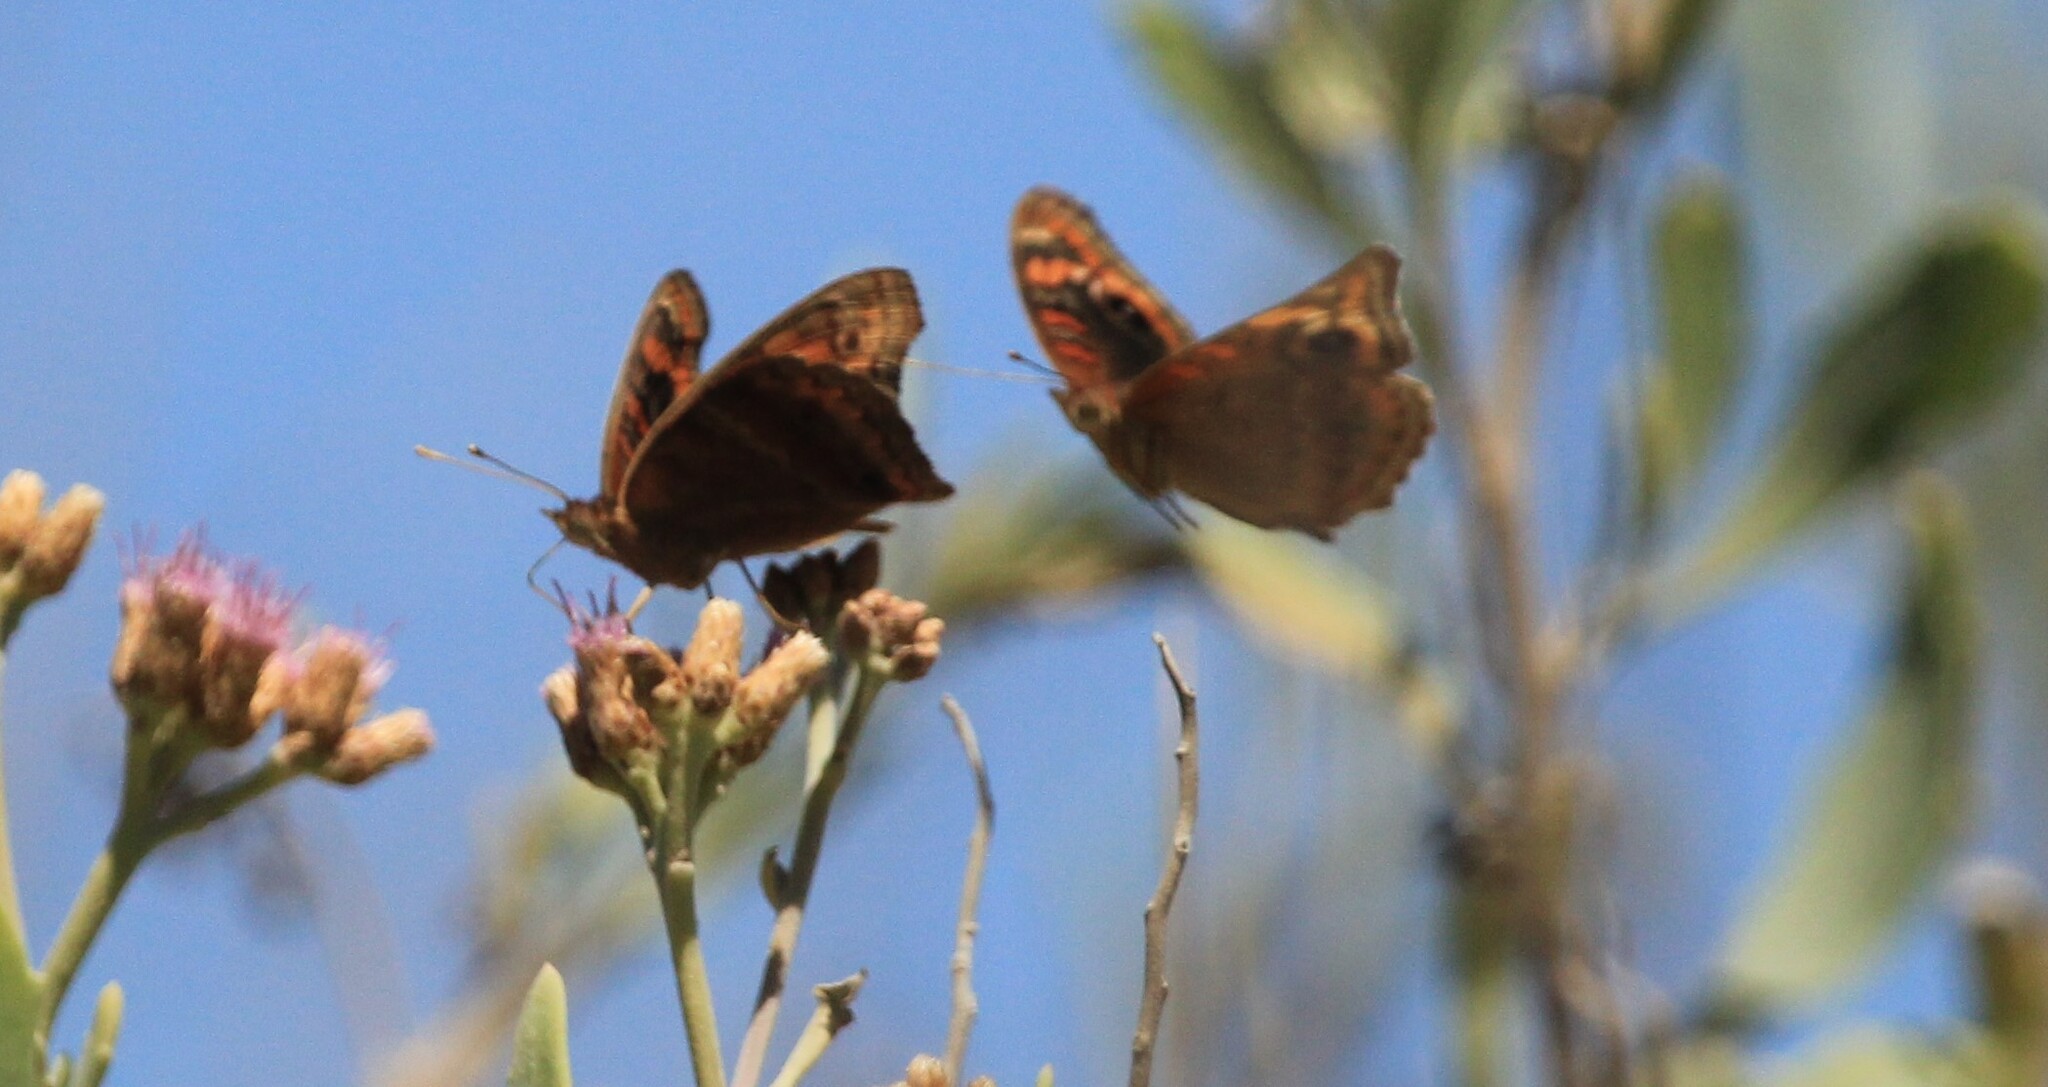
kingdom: Animalia
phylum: Arthropoda
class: Insecta
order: Lepidoptera
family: Nymphalidae
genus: Junonia
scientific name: Junonia lavinia
